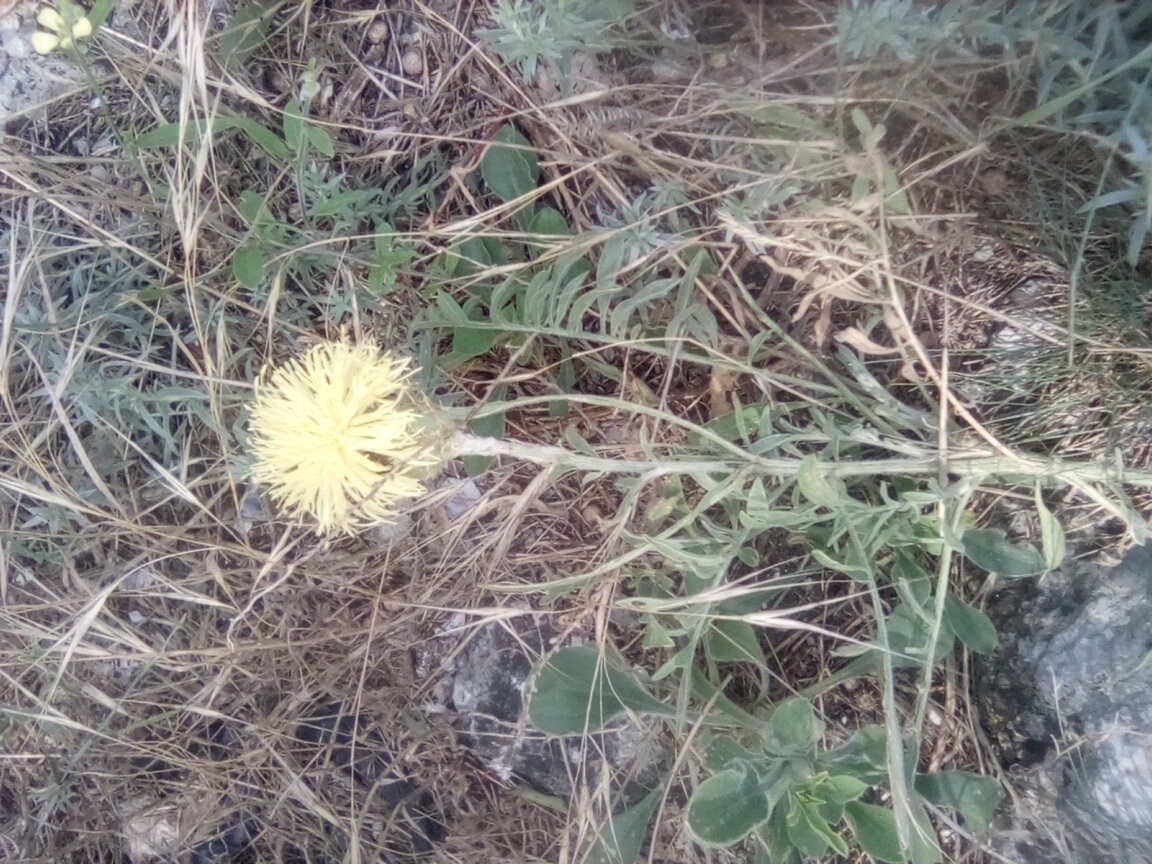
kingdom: Plantae
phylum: Tracheophyta
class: Magnoliopsida
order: Asterales
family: Asteraceae
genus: Centaurea
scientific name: Centaurea salonitana
